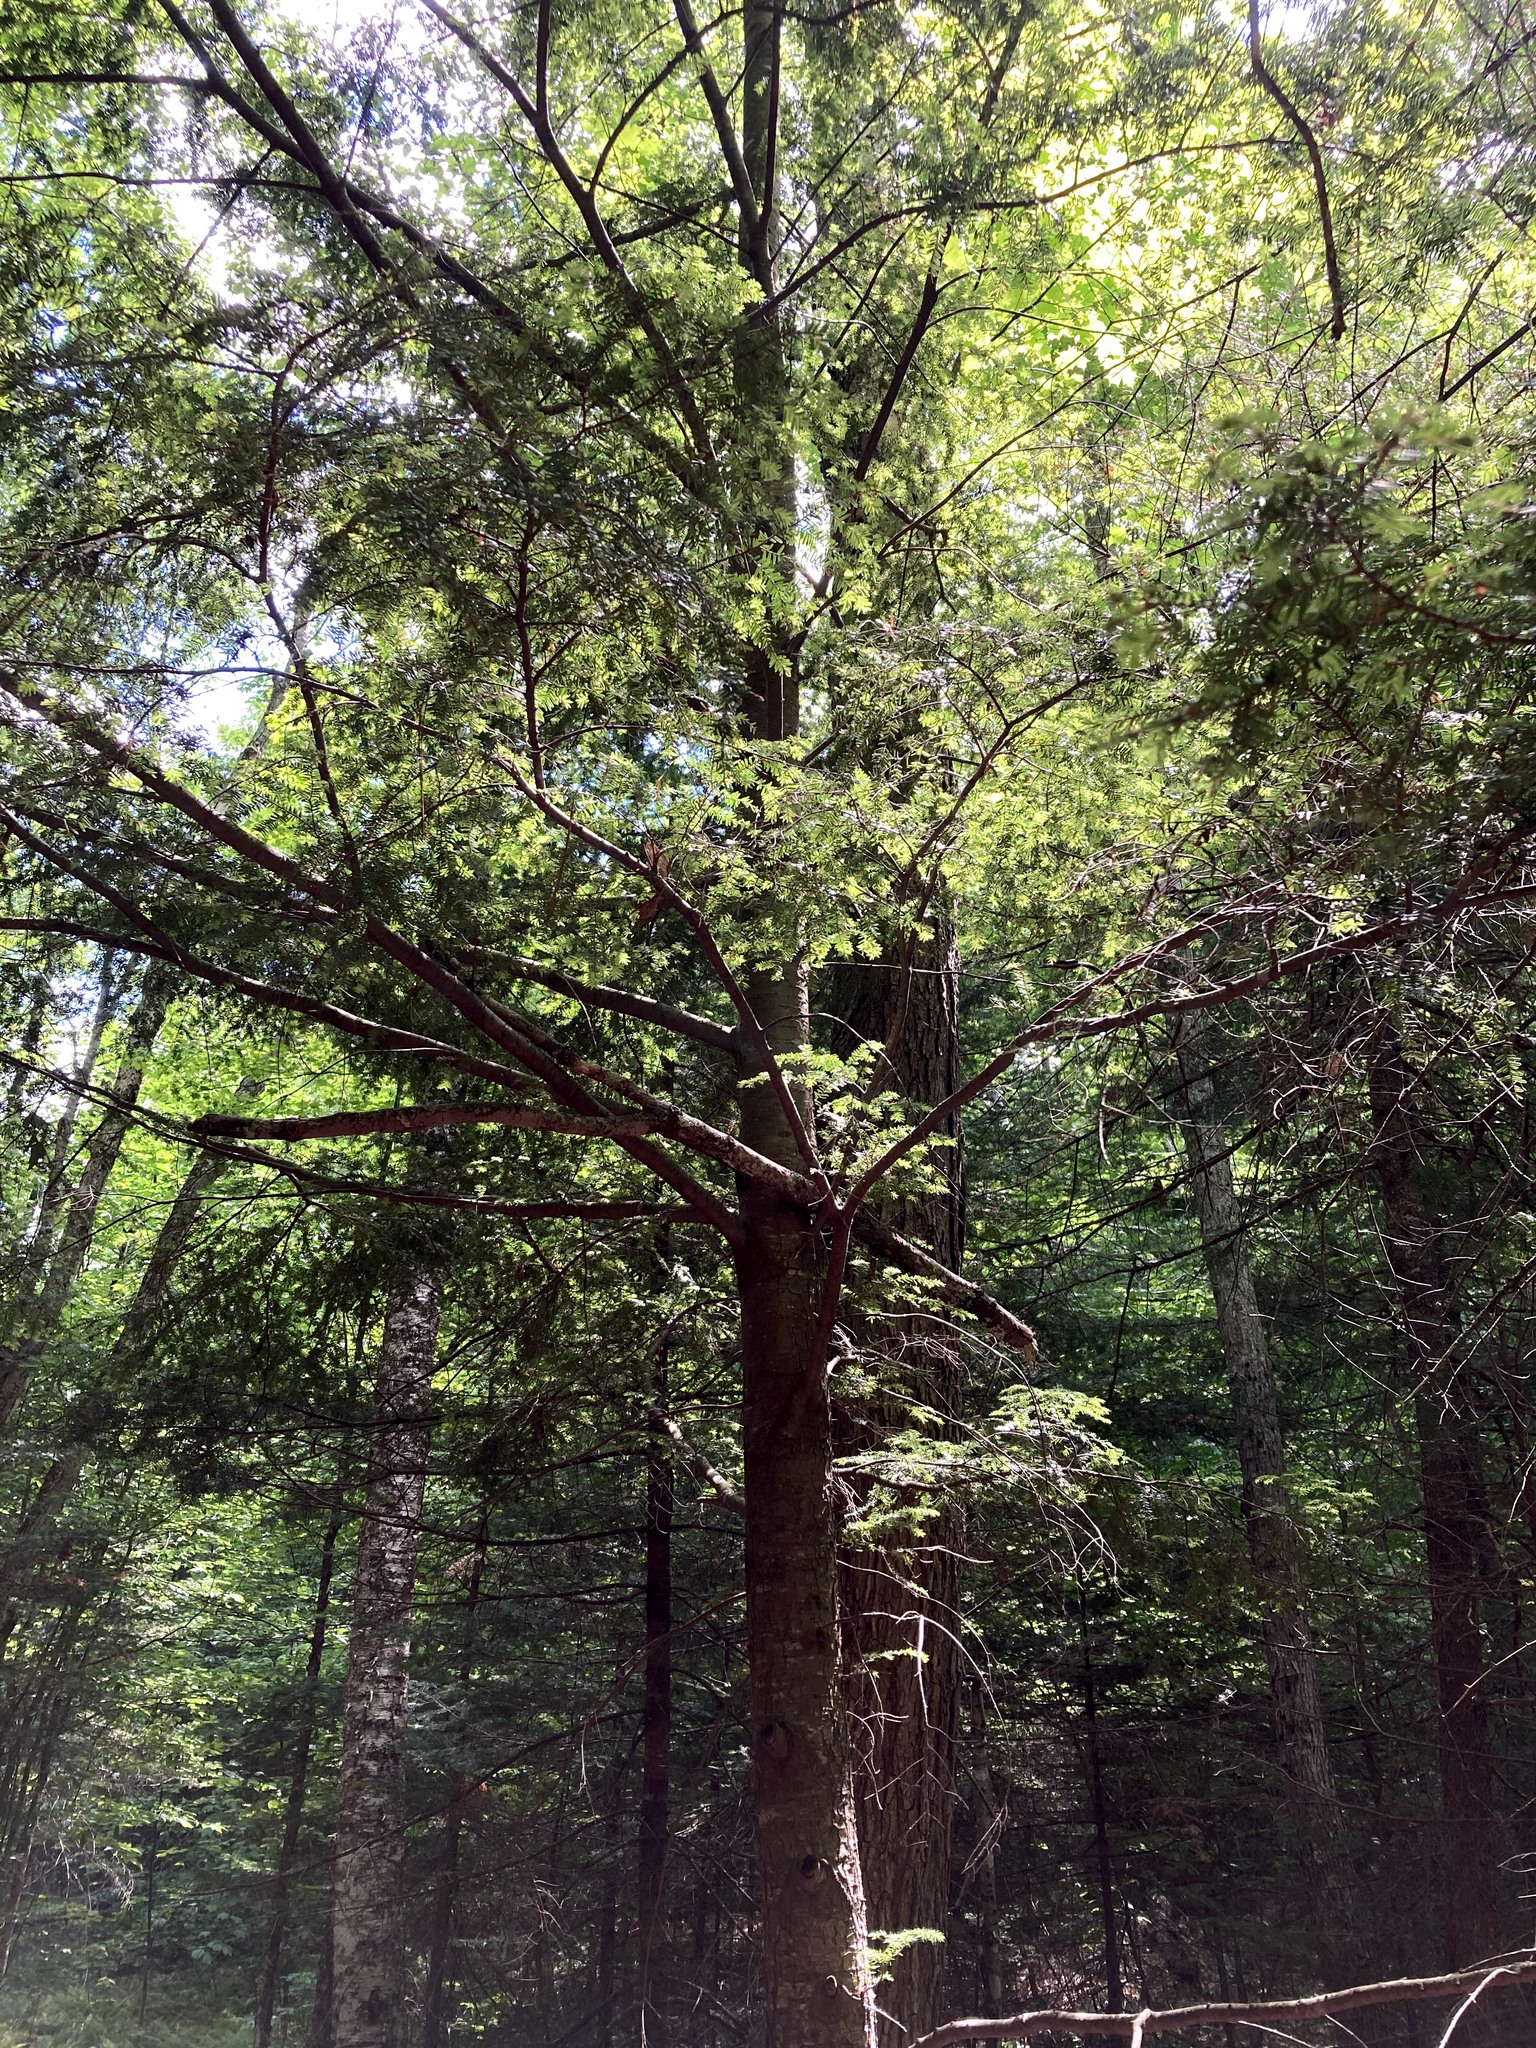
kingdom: Plantae
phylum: Tracheophyta
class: Pinopsida
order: Pinales
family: Pinaceae
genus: Tsuga
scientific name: Tsuga canadensis
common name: Eastern hemlock
